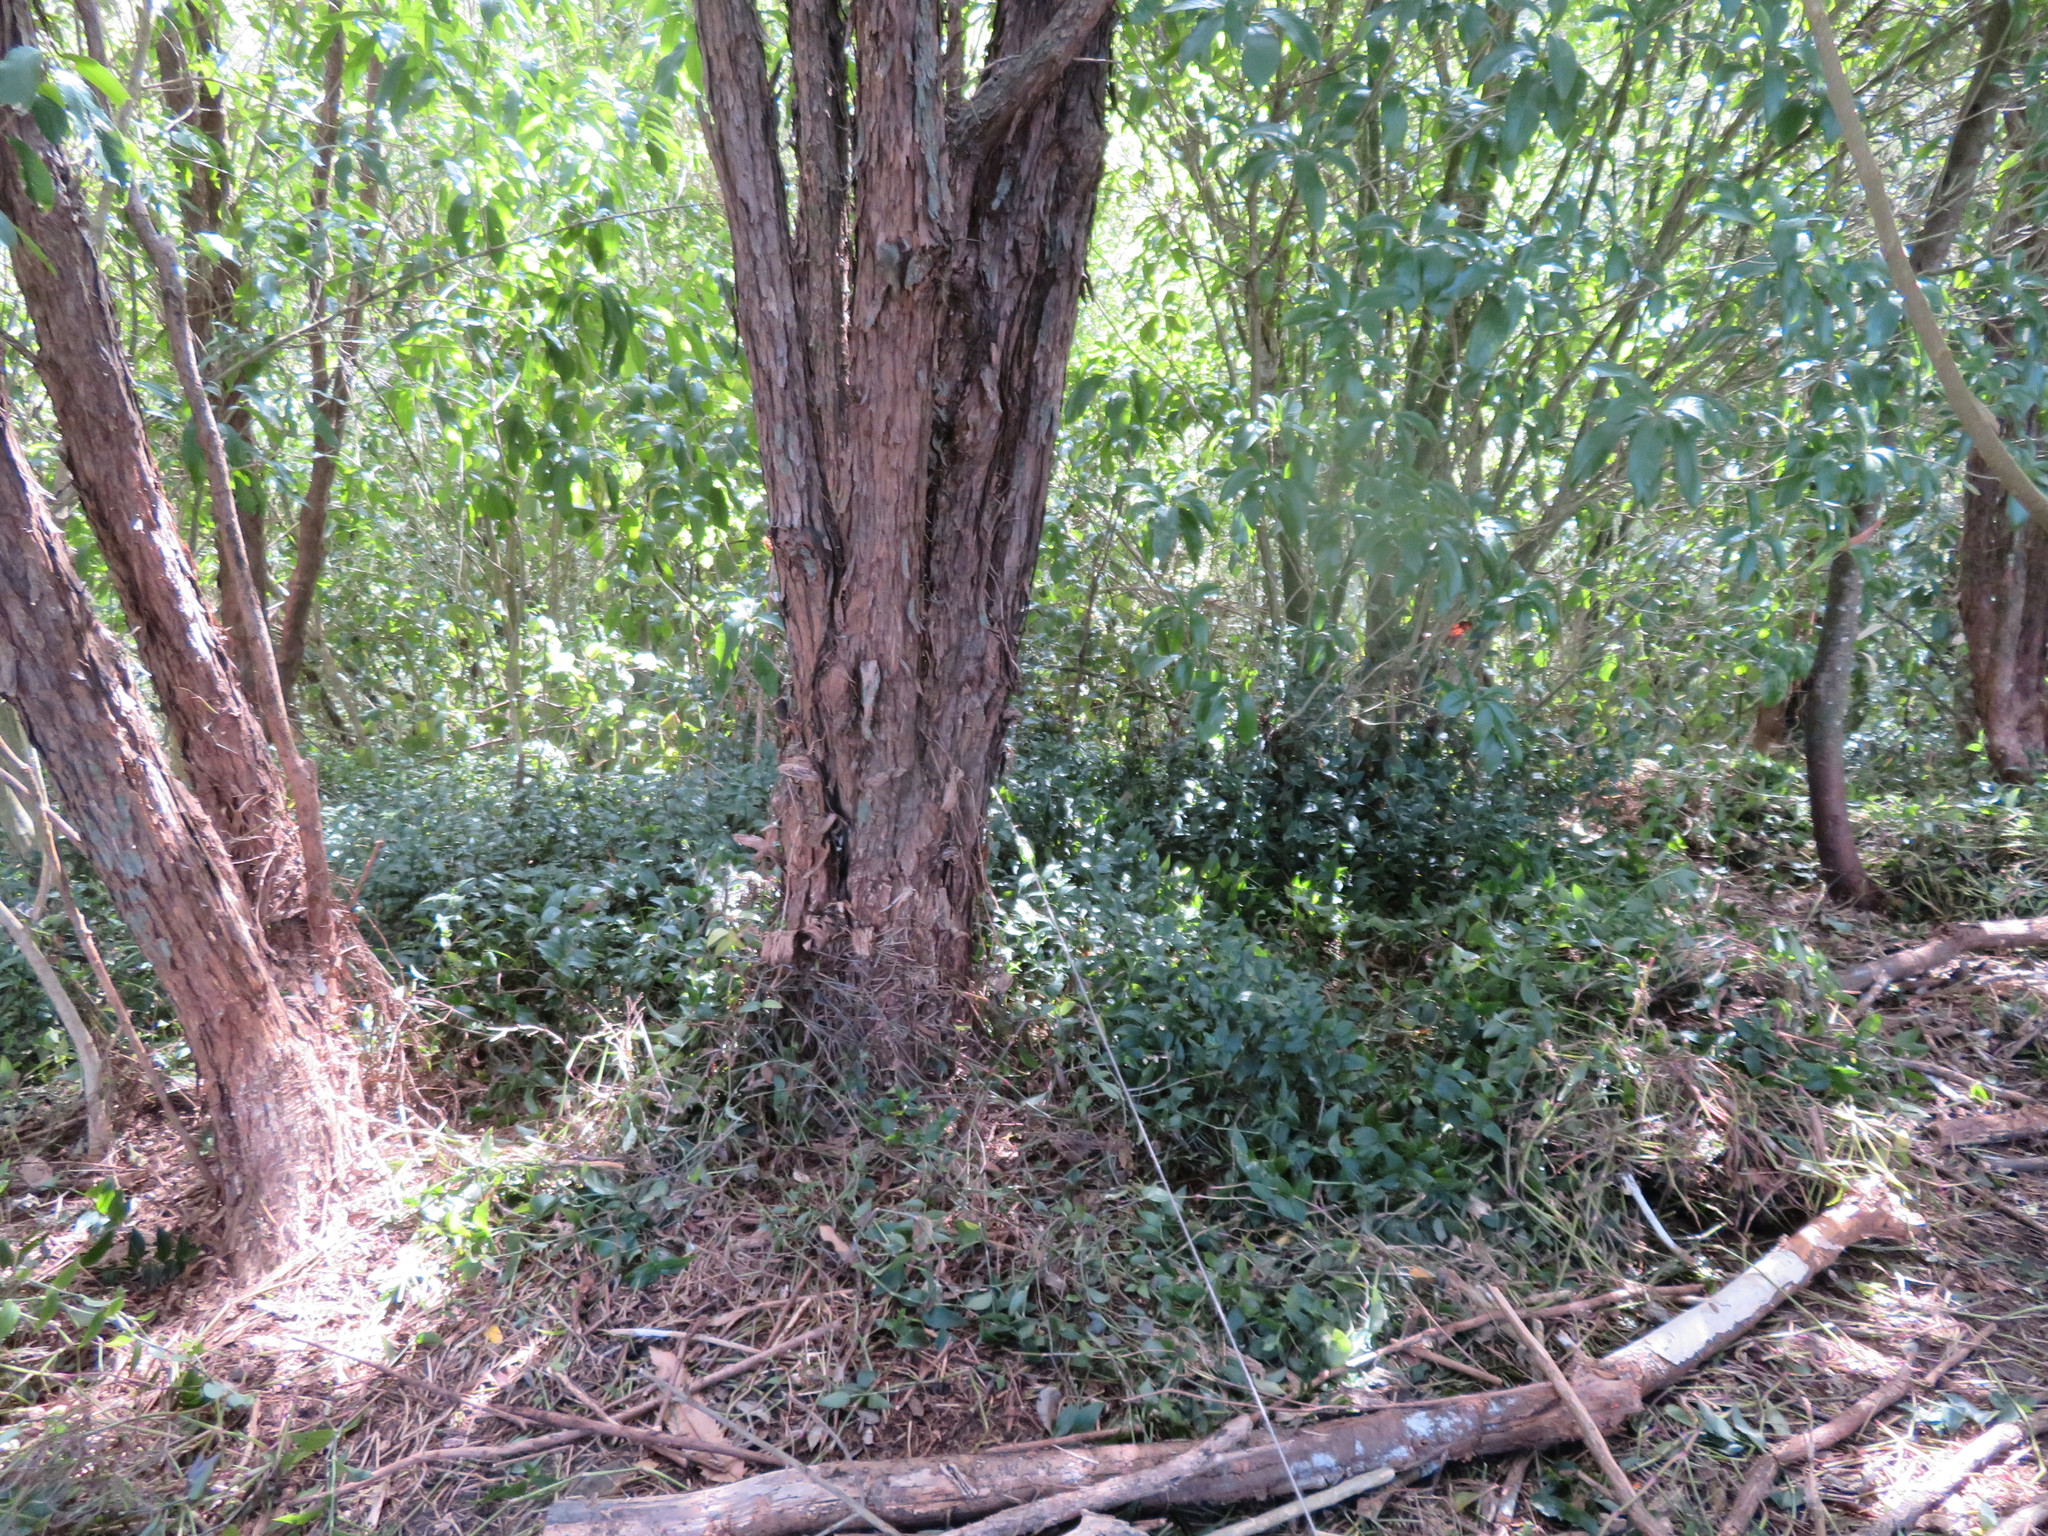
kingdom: Plantae
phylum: Tracheophyta
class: Liliopsida
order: Commelinales
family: Commelinaceae
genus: Tradescantia
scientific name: Tradescantia fluminensis
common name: Wandering-jew
